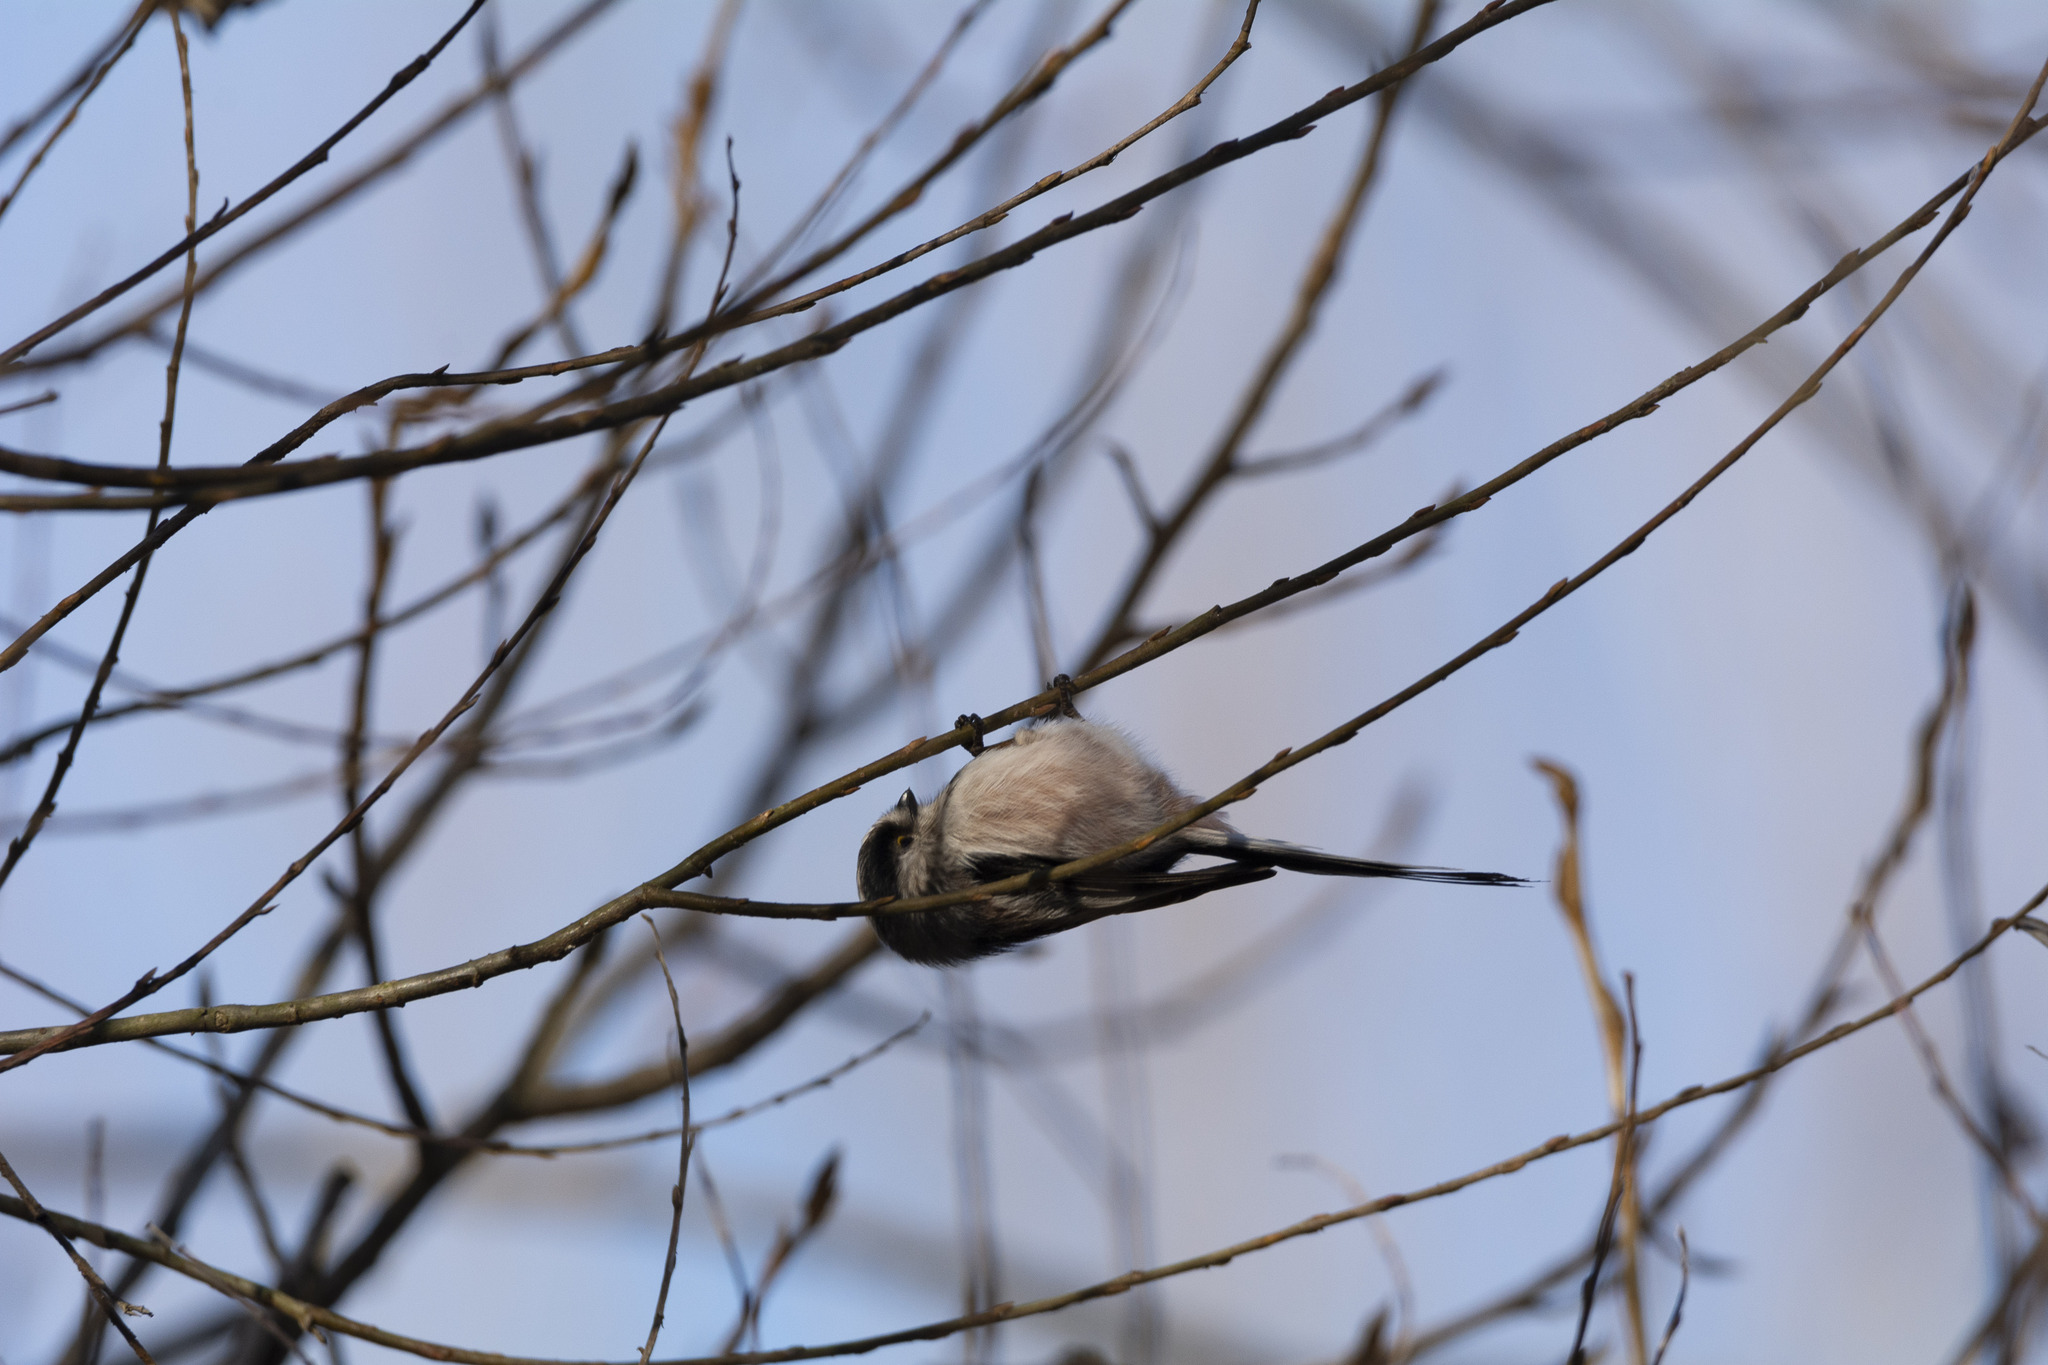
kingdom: Animalia
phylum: Chordata
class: Aves
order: Passeriformes
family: Aegithalidae
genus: Aegithalos
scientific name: Aegithalos caudatus
